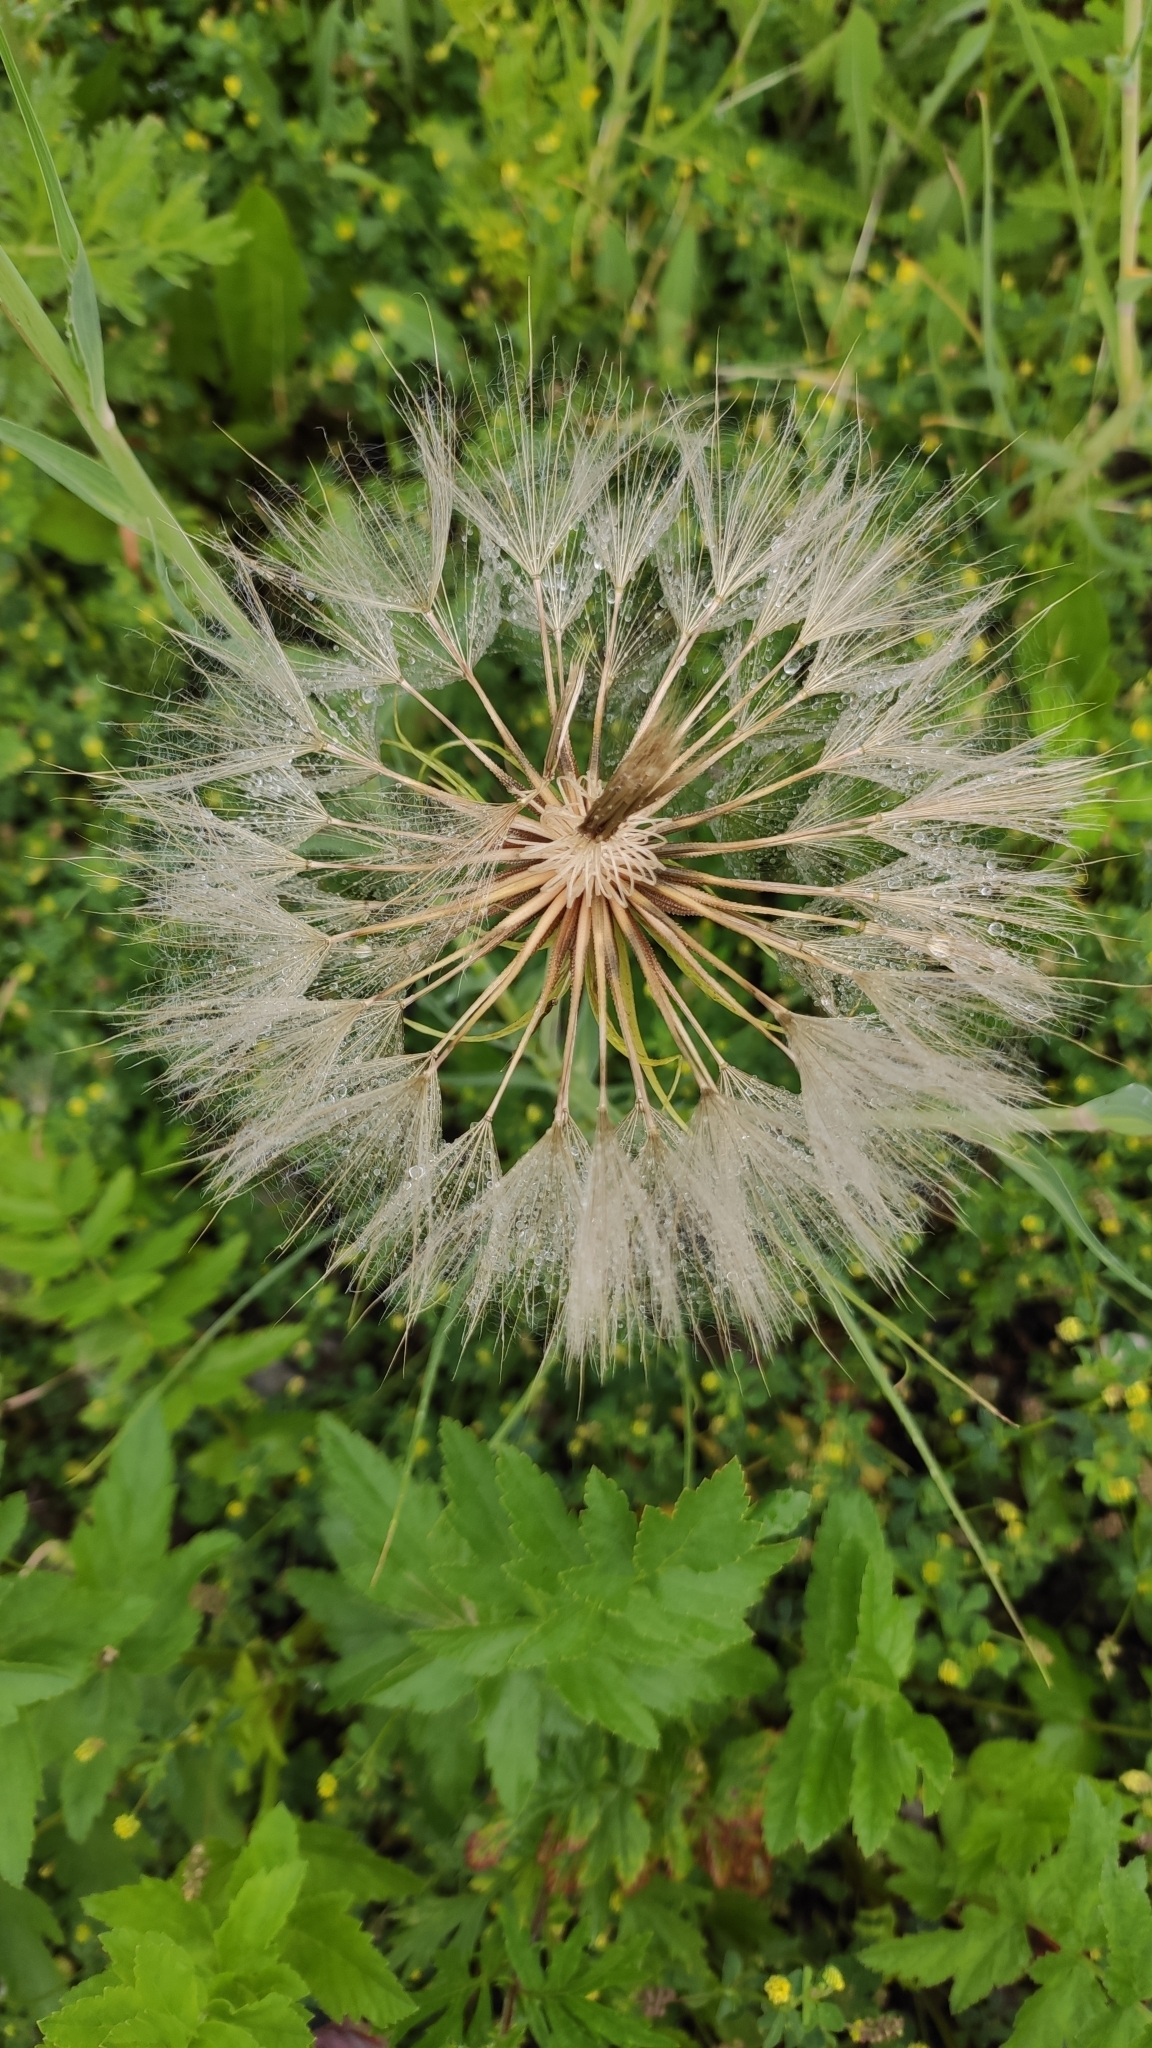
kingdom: Plantae
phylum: Tracheophyta
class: Magnoliopsida
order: Asterales
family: Asteraceae
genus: Tragopogon
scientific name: Tragopogon dubius
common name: Yellow salsify
